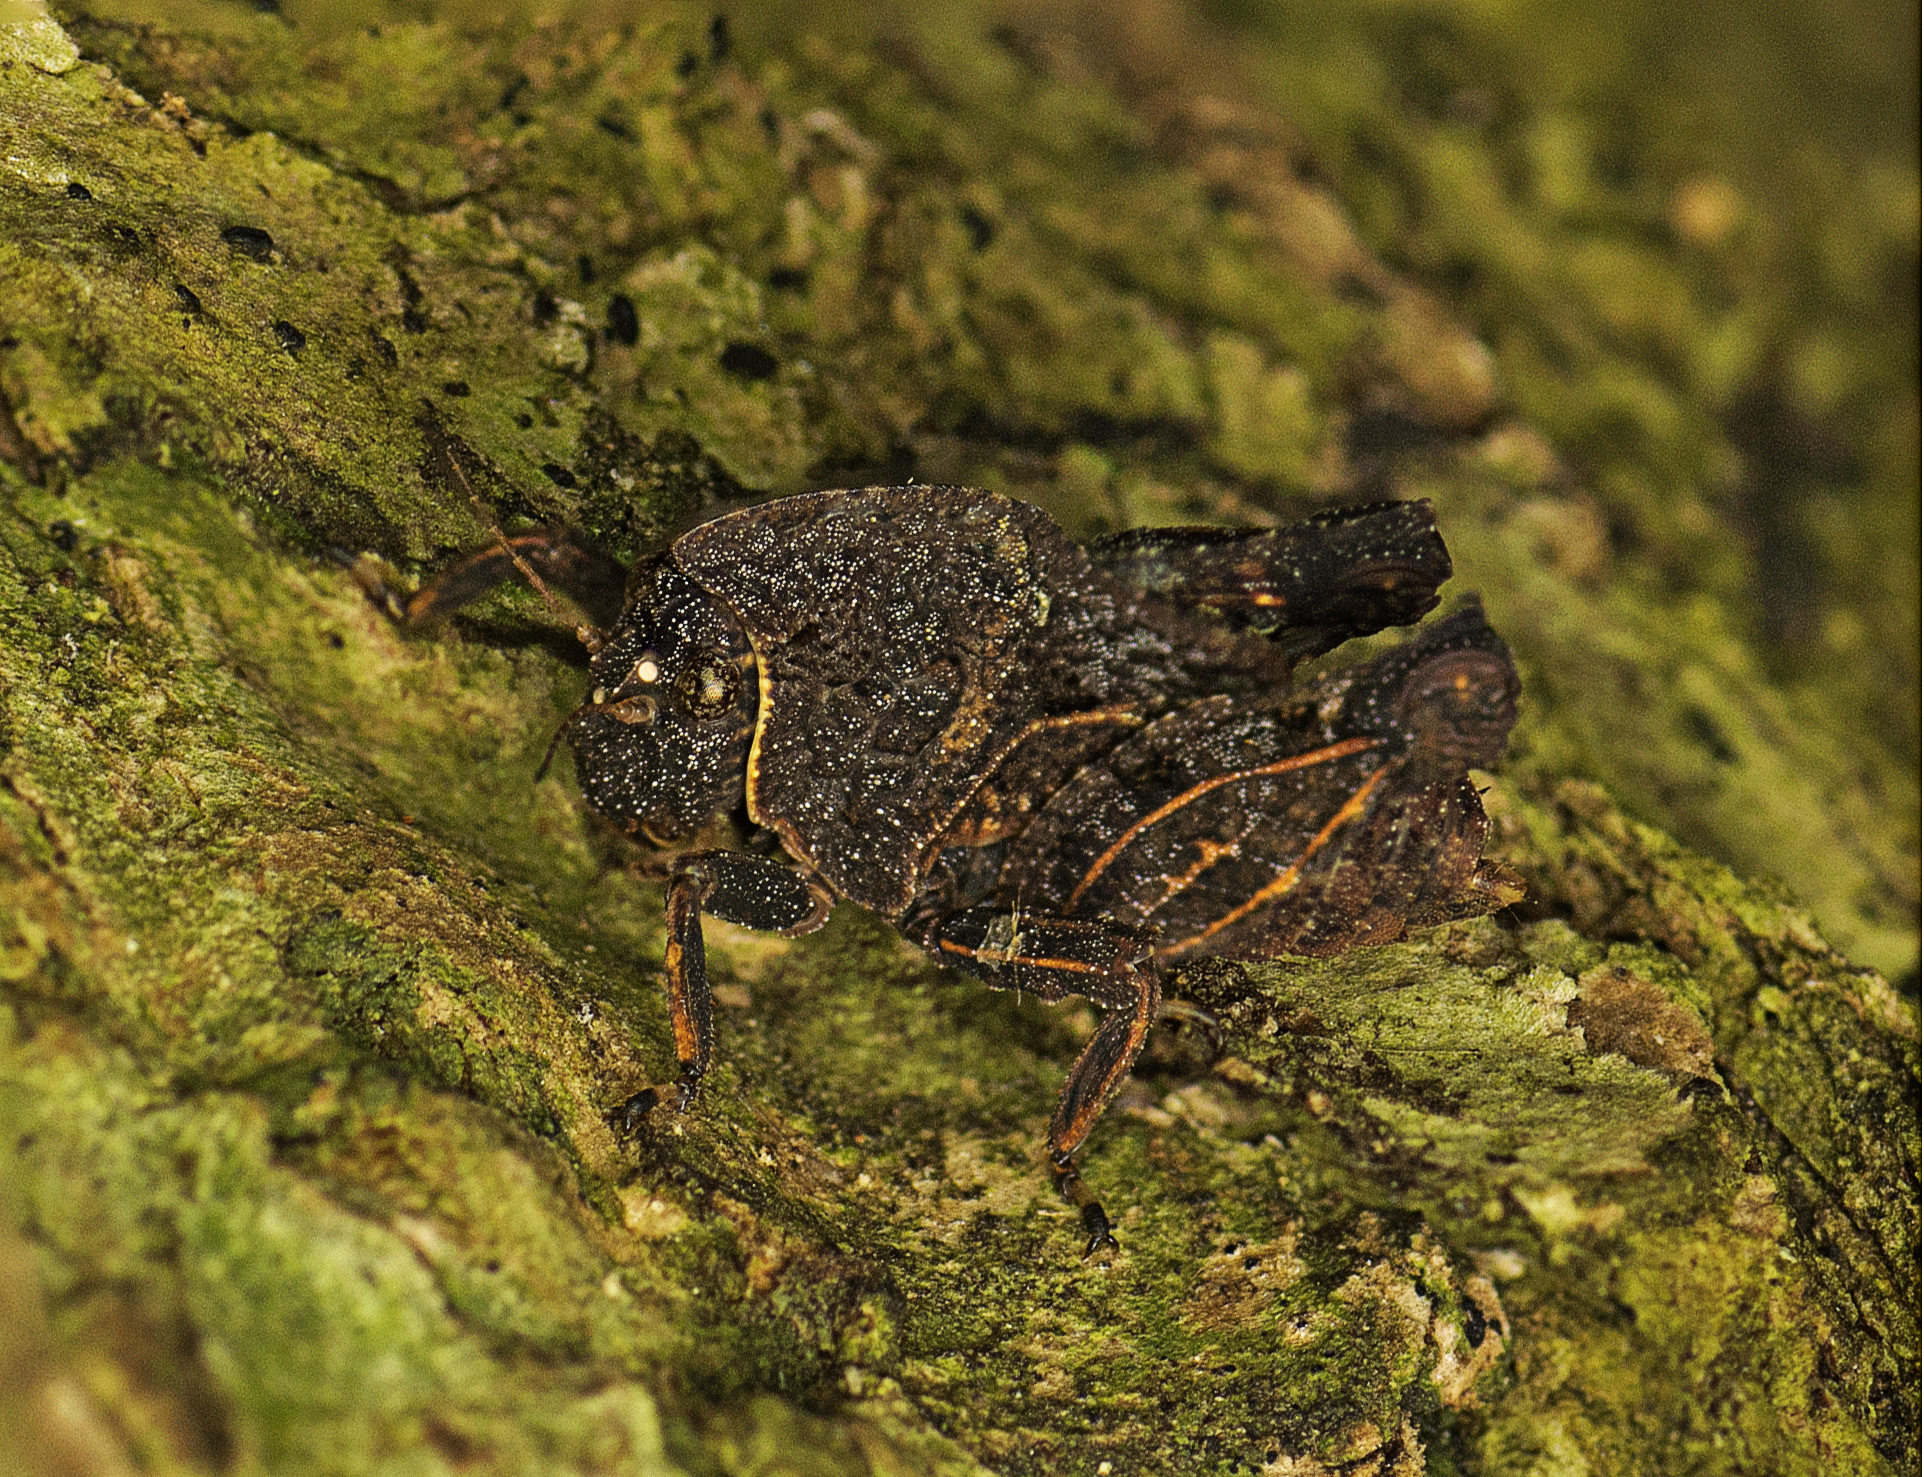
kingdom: Animalia
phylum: Arthropoda
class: Insecta
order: Orthoptera
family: Tetrigidae
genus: Vingselina
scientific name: Vingselina crassa
